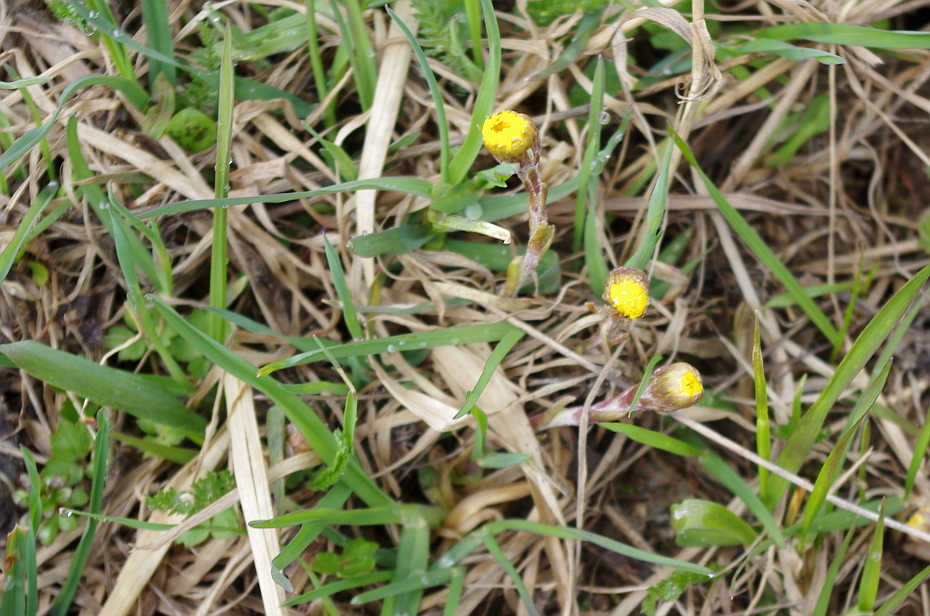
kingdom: Plantae
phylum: Tracheophyta
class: Magnoliopsida
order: Asterales
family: Asteraceae
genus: Tussilago
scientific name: Tussilago farfara
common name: Coltsfoot
